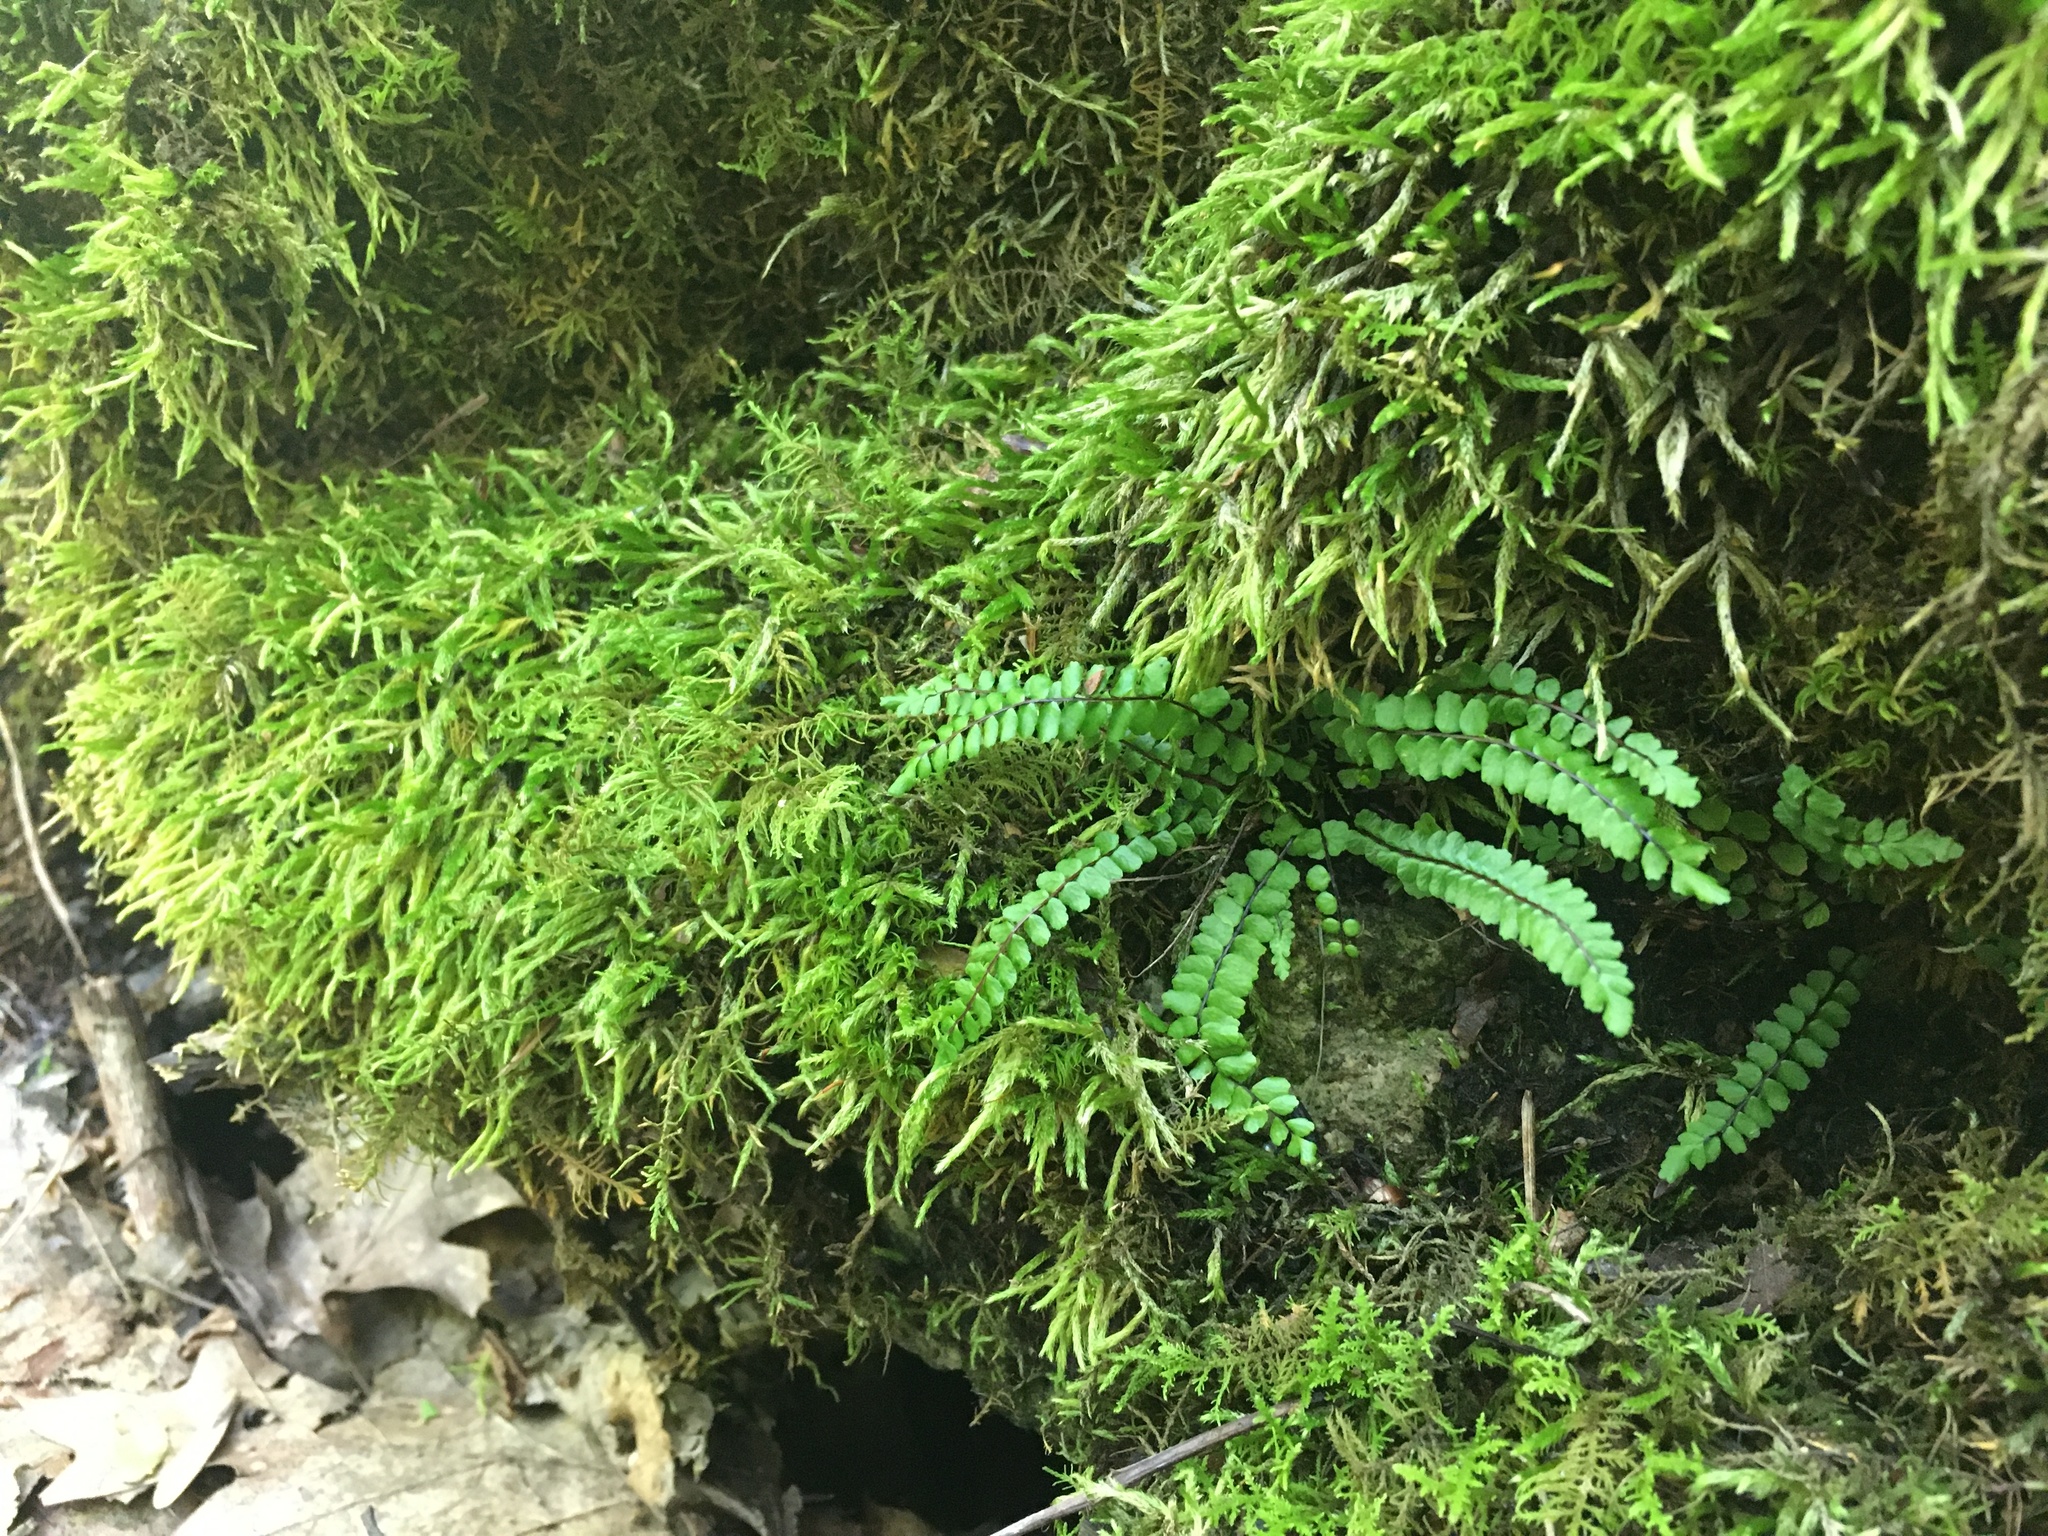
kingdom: Plantae
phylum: Tracheophyta
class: Polypodiopsida
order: Polypodiales
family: Aspleniaceae
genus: Asplenium
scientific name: Asplenium trichomanes
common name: Maidenhair spleenwort
